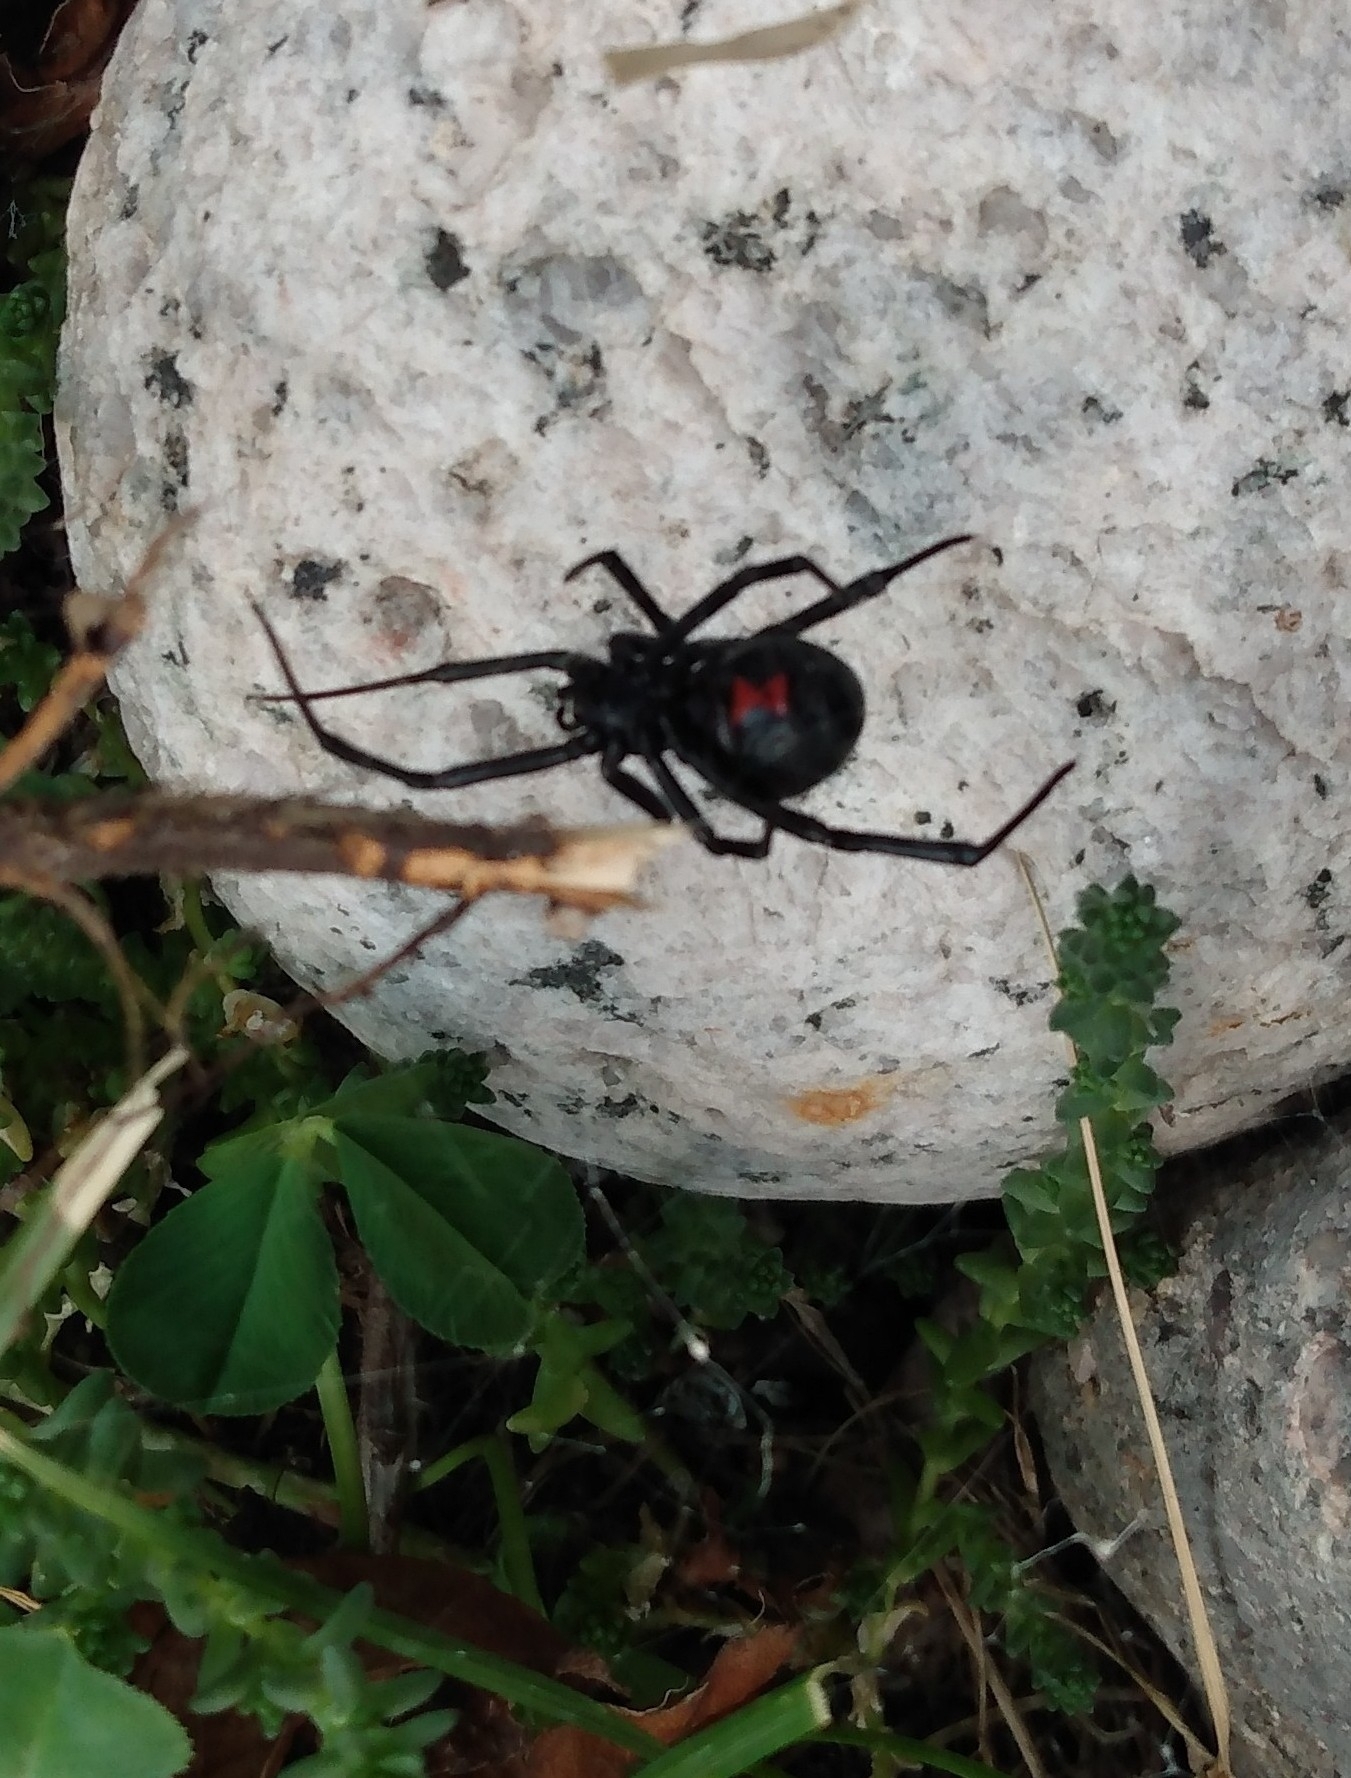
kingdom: Animalia
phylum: Arthropoda
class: Arachnida
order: Araneae
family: Theridiidae
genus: Latrodectus
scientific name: Latrodectus hesperus
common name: Western black widow
